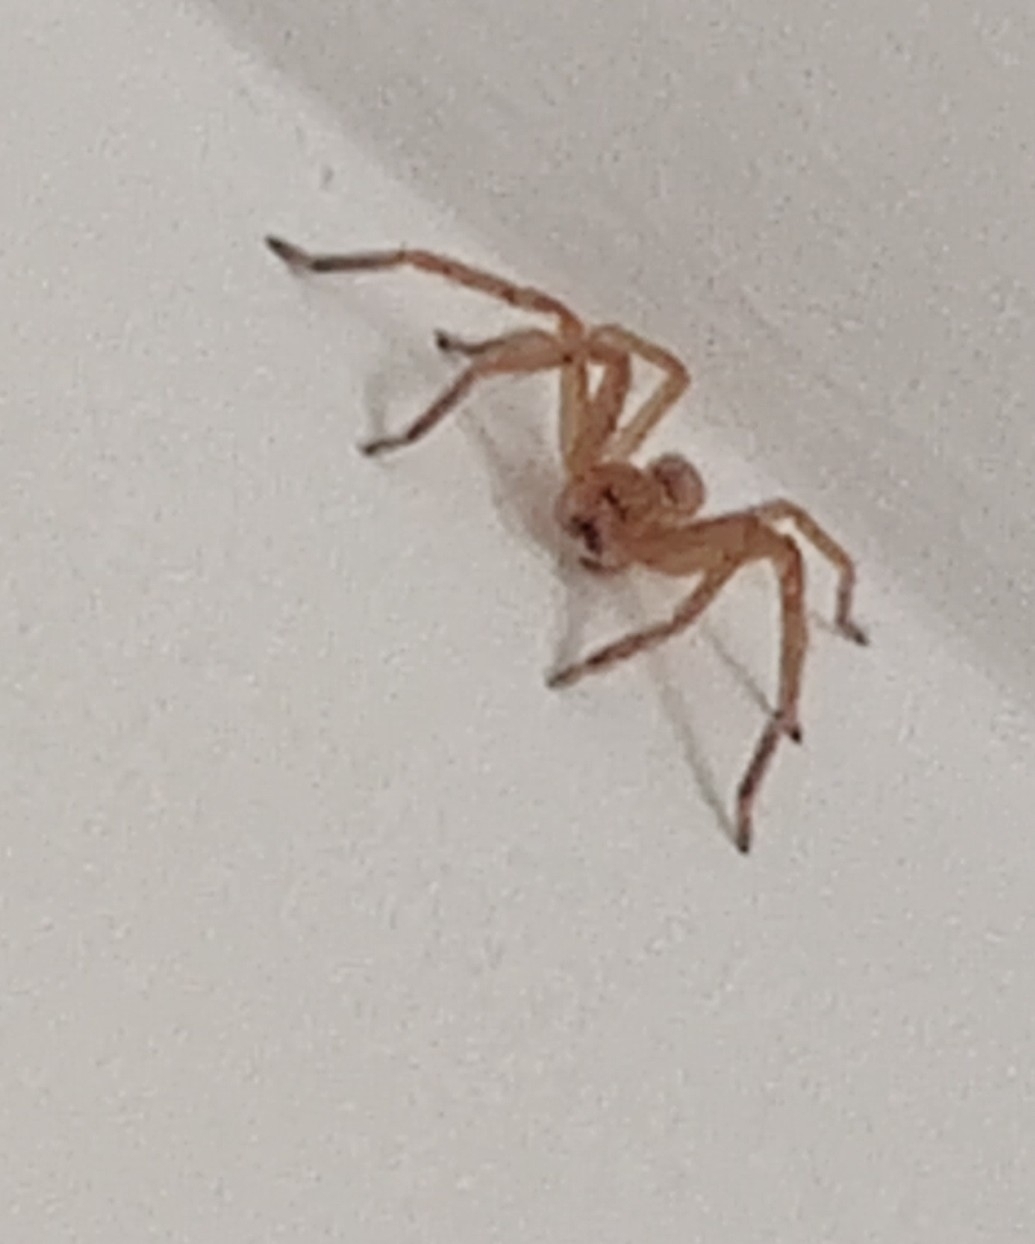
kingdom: Animalia
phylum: Arthropoda
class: Arachnida
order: Araneae
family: Sparassidae
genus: Olios
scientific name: Olios argelasius
